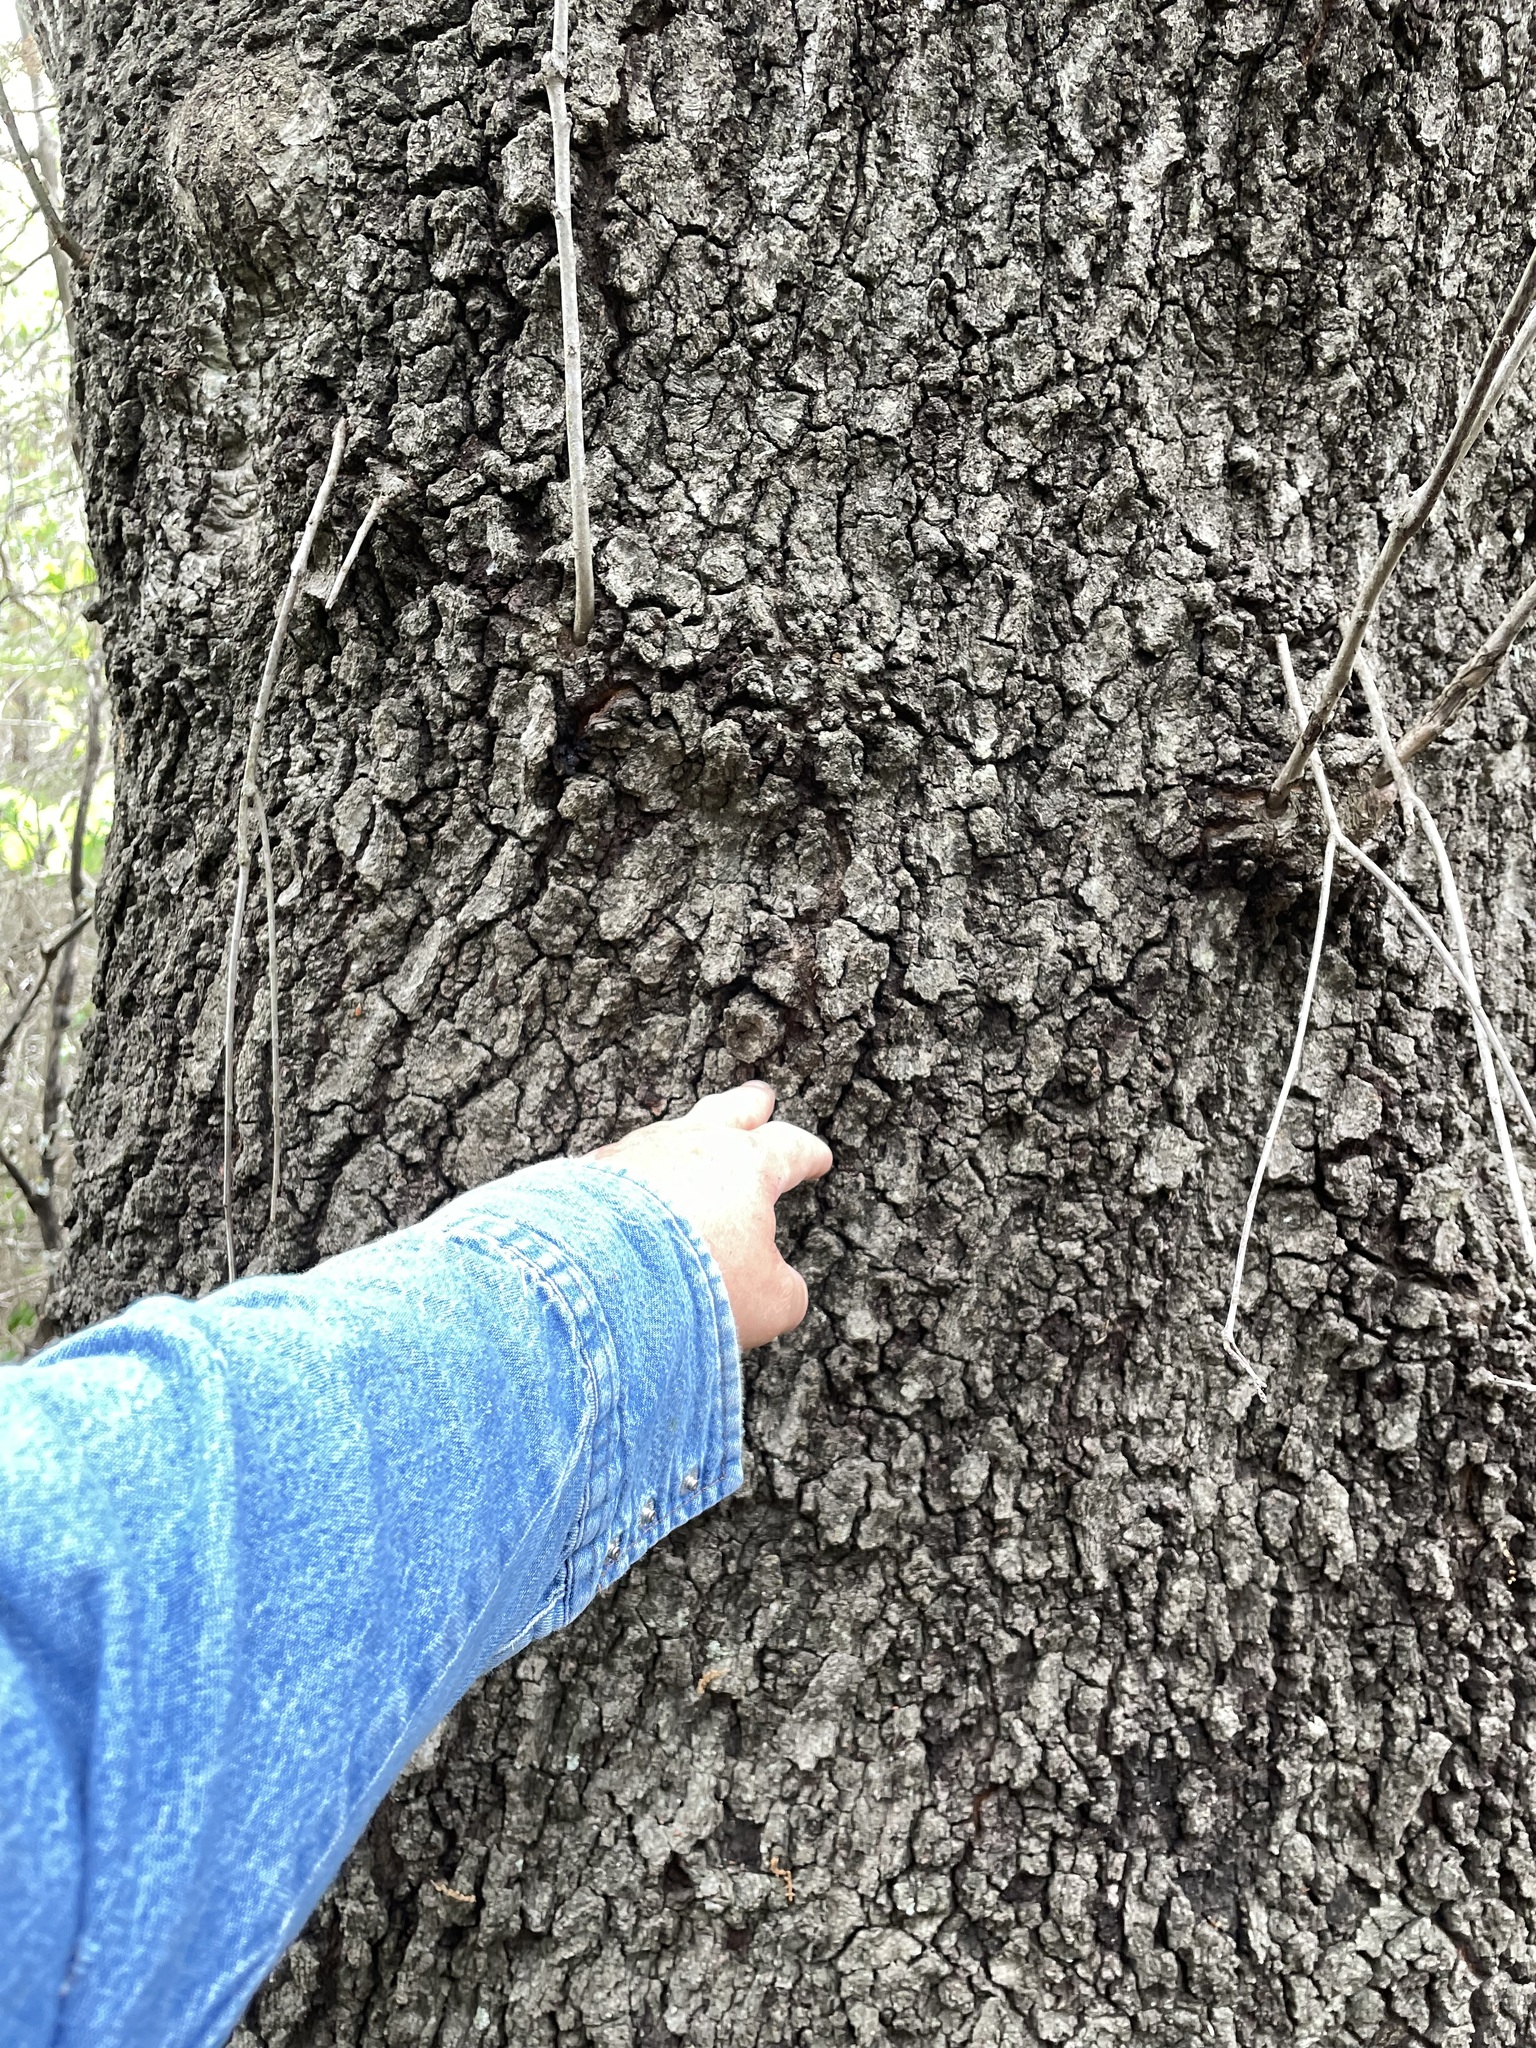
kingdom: Plantae
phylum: Tracheophyta
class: Magnoliopsida
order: Fagales
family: Fagaceae
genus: Quercus
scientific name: Quercus buckleyi
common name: Buckley oak
